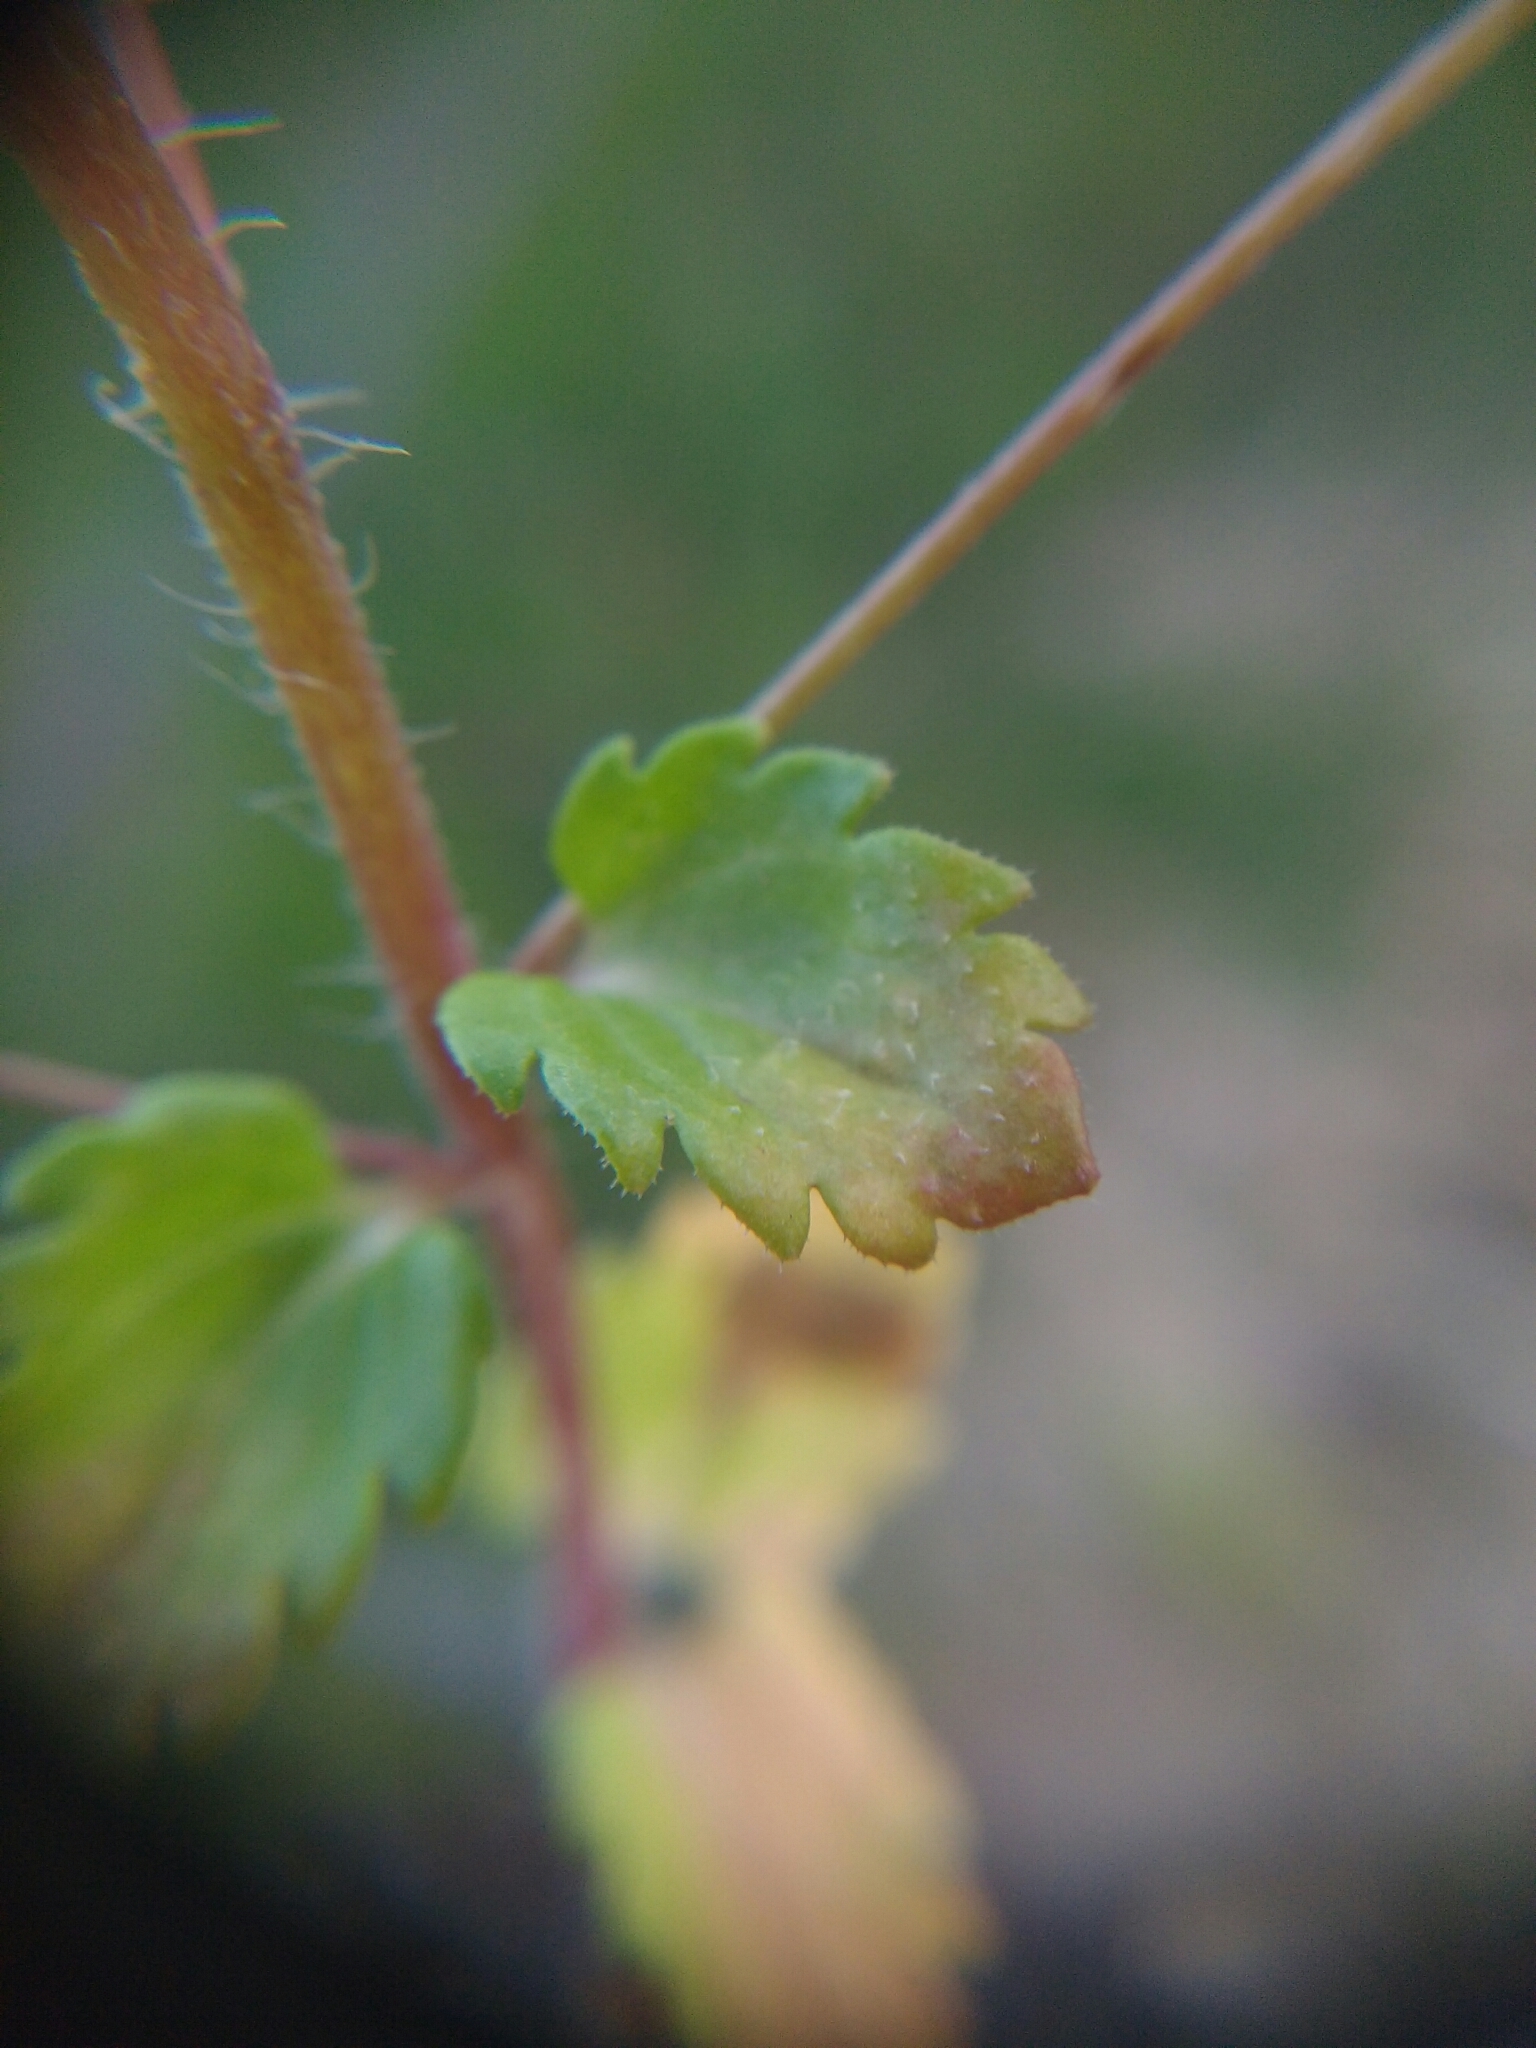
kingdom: Plantae
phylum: Tracheophyta
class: Magnoliopsida
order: Lamiales
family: Plantaginaceae
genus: Veronica
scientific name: Veronica persica
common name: Common field-speedwell
